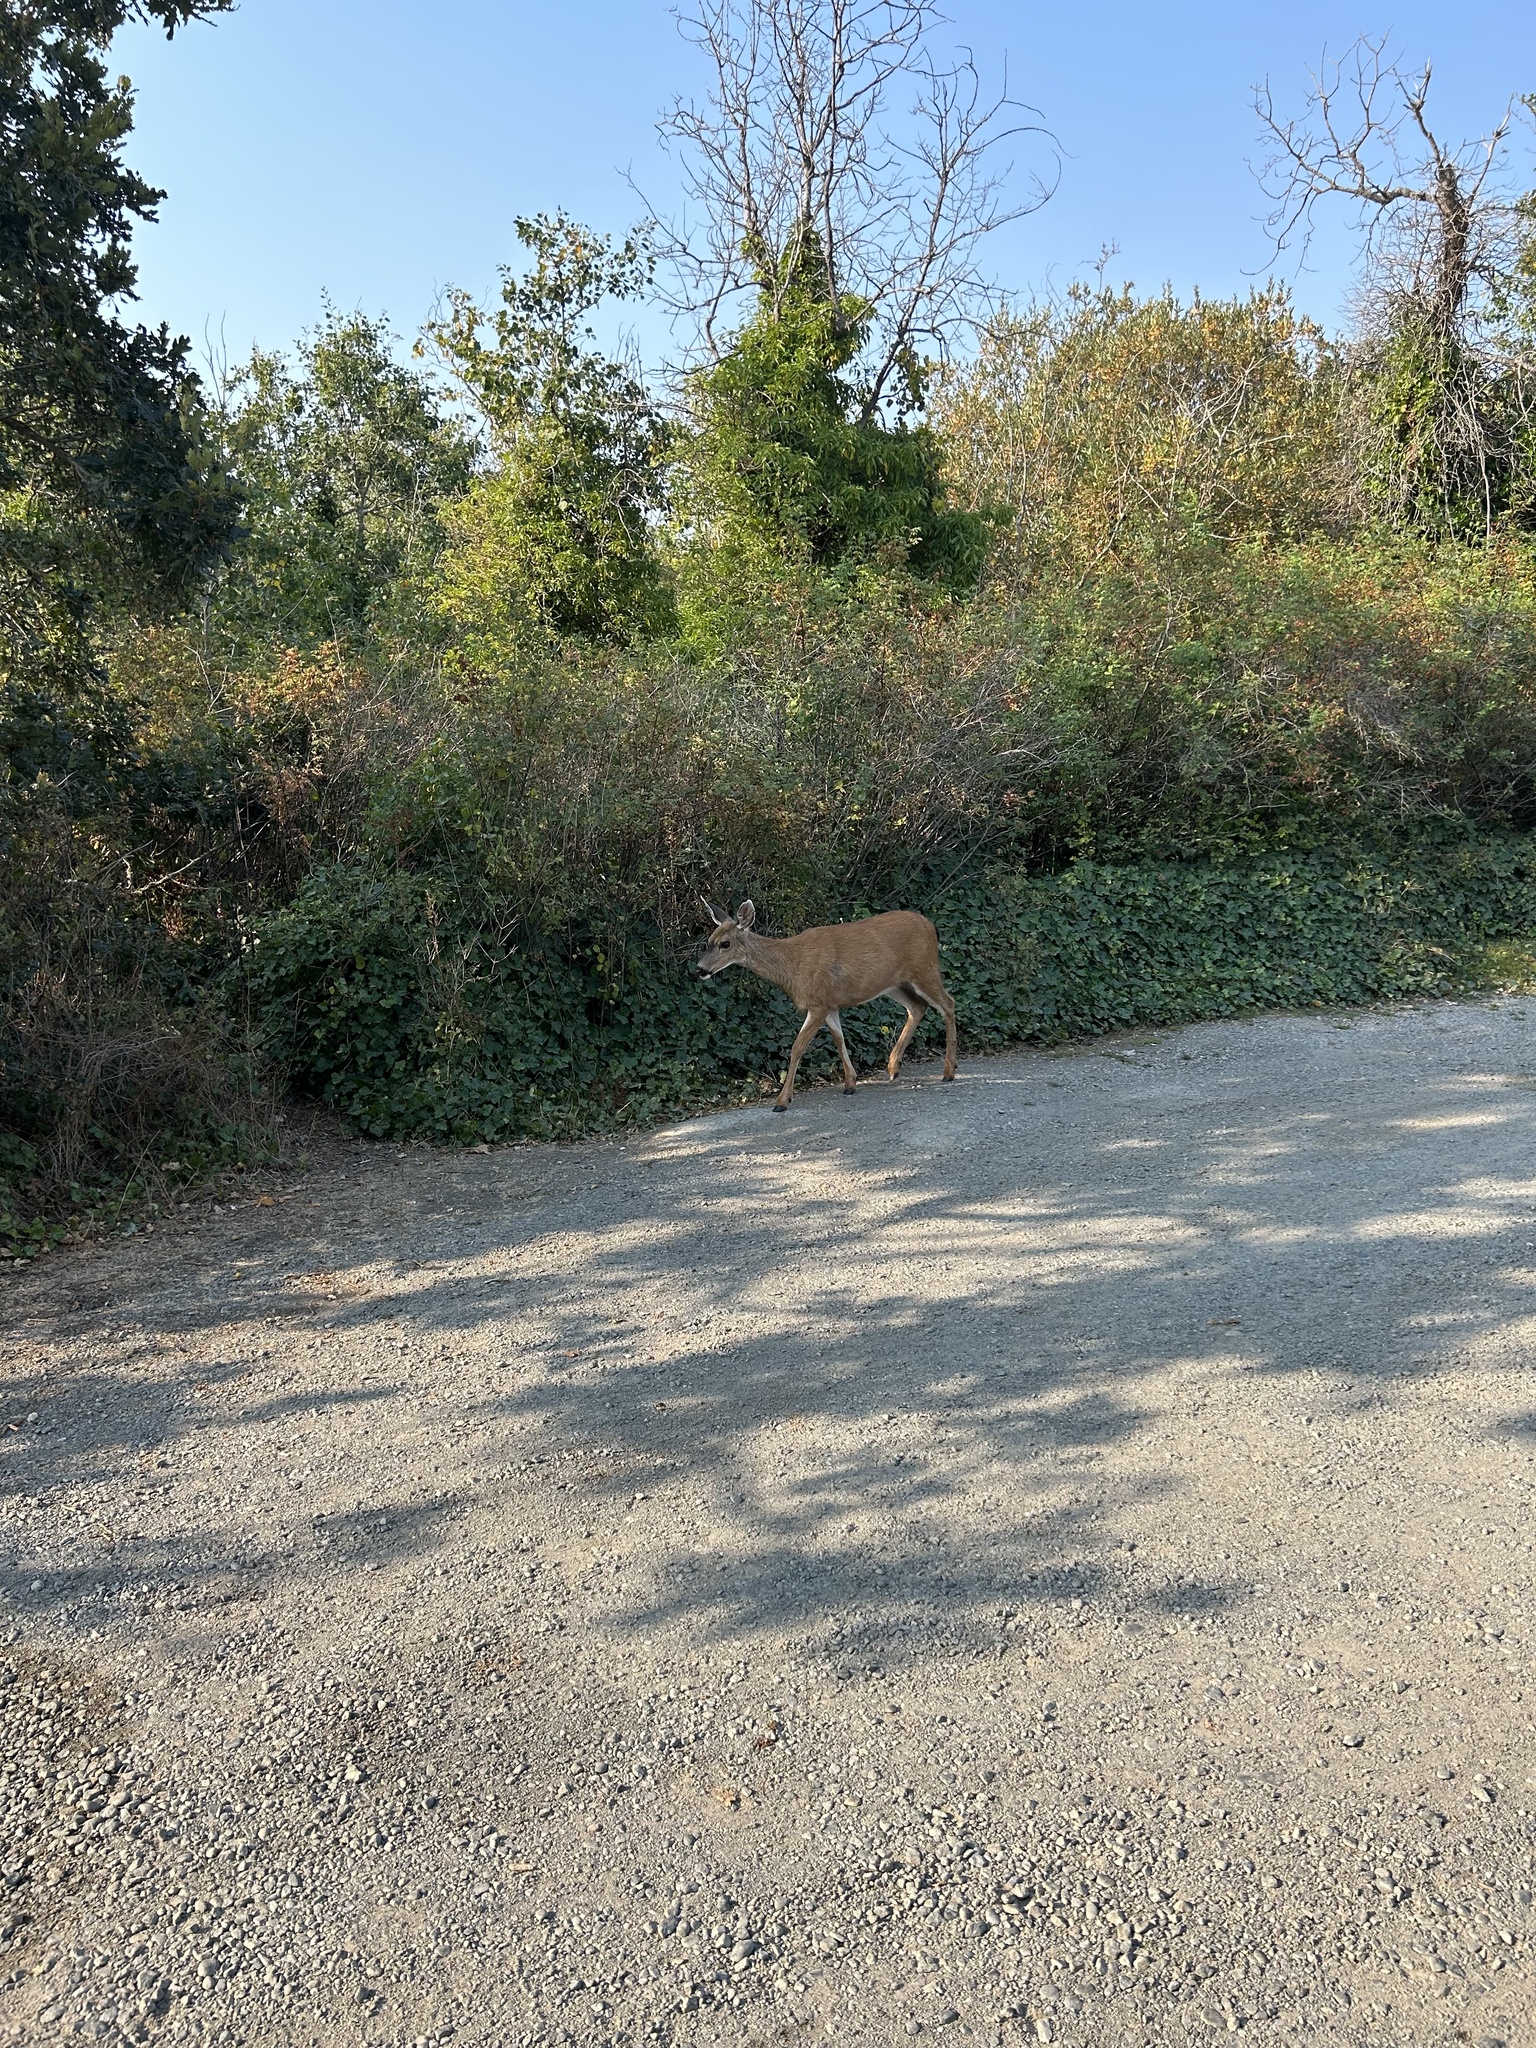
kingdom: Animalia
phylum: Chordata
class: Mammalia
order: Artiodactyla
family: Cervidae
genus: Odocoileus
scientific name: Odocoileus hemionus
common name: Mule deer
